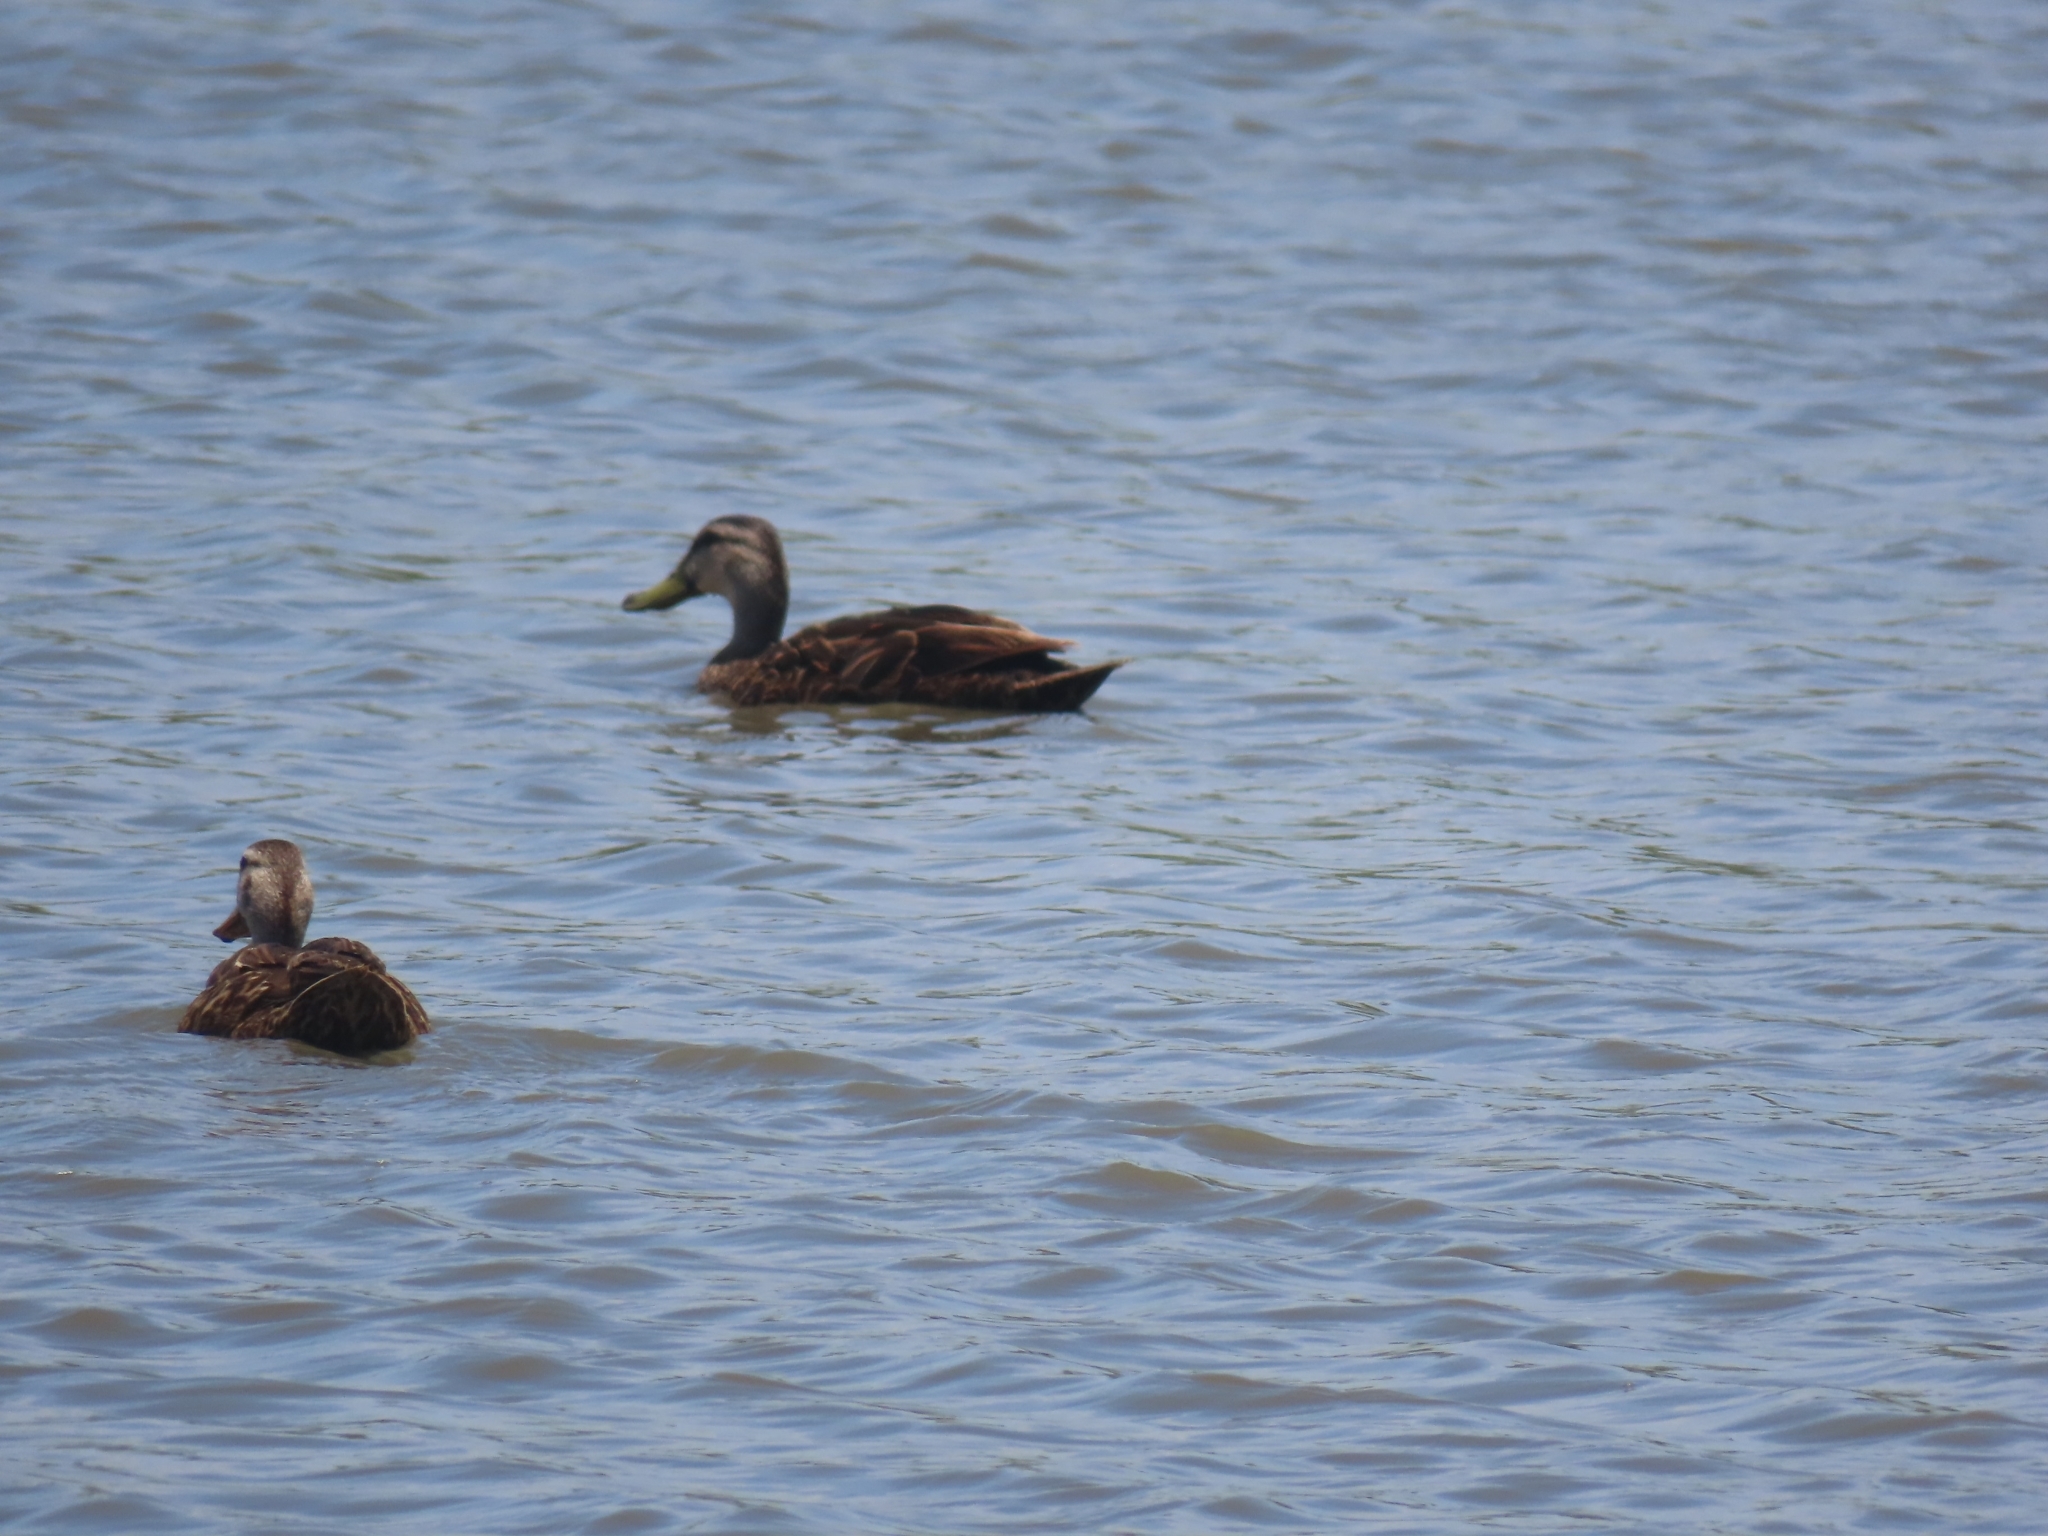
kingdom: Animalia
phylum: Chordata
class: Aves
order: Anseriformes
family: Anatidae
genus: Anas
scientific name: Anas fulvigula
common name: Mottled duck
